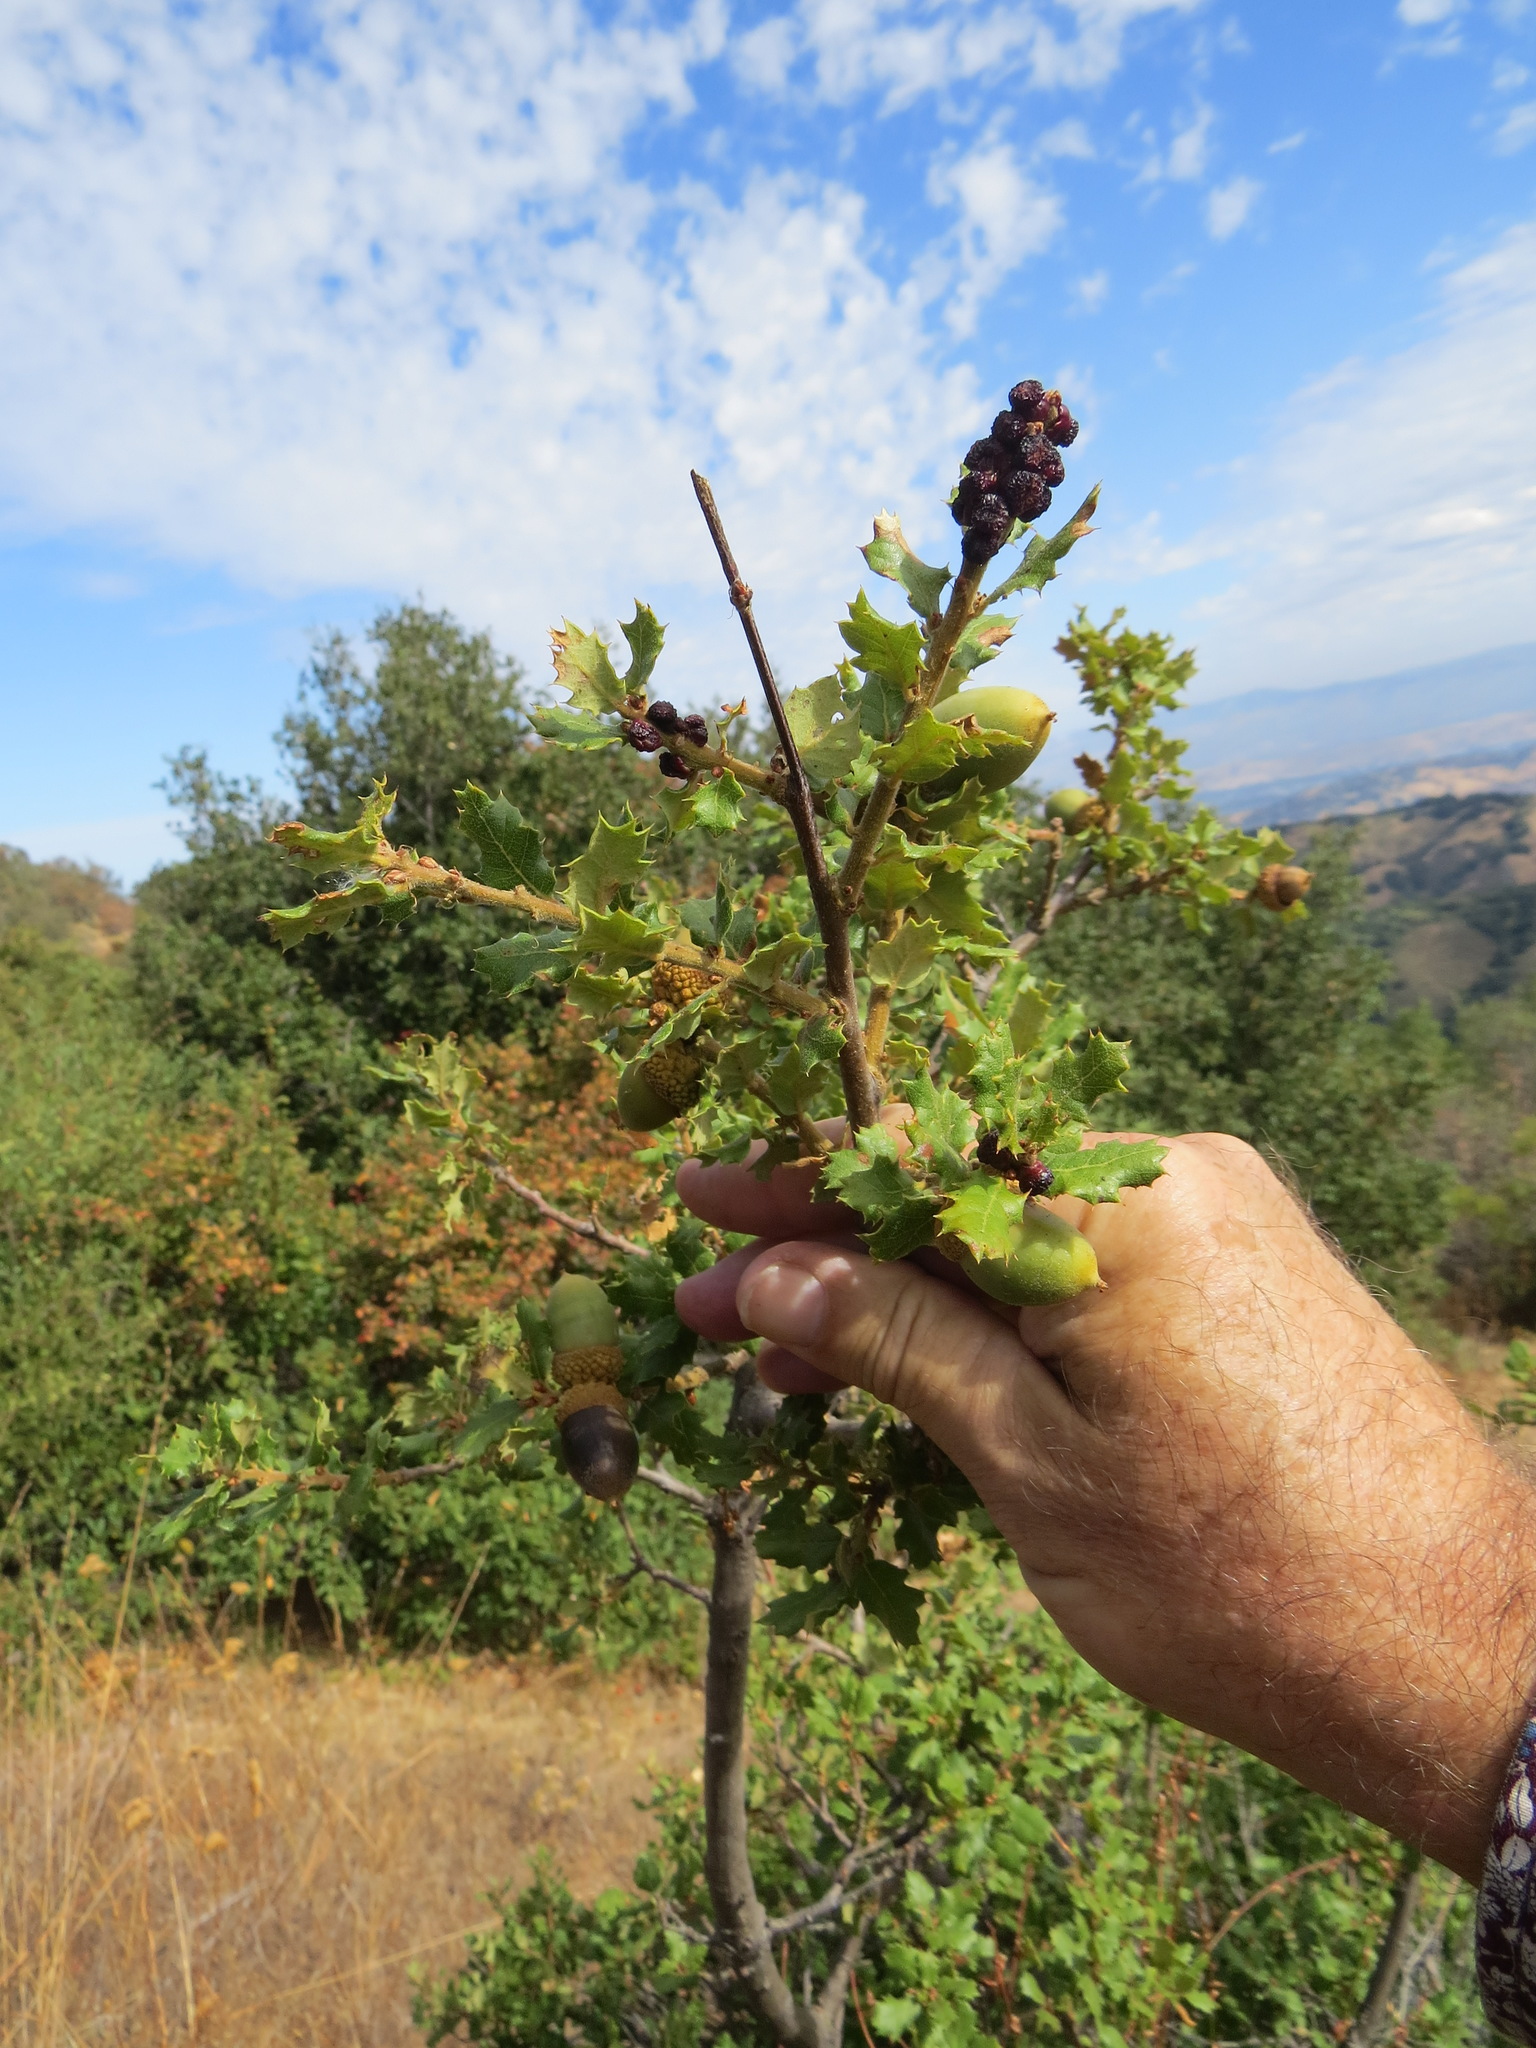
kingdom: Animalia
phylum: Arthropoda
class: Insecta
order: Hymenoptera
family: Cynipidae
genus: Disholcaspis
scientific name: Disholcaspis prehensa
